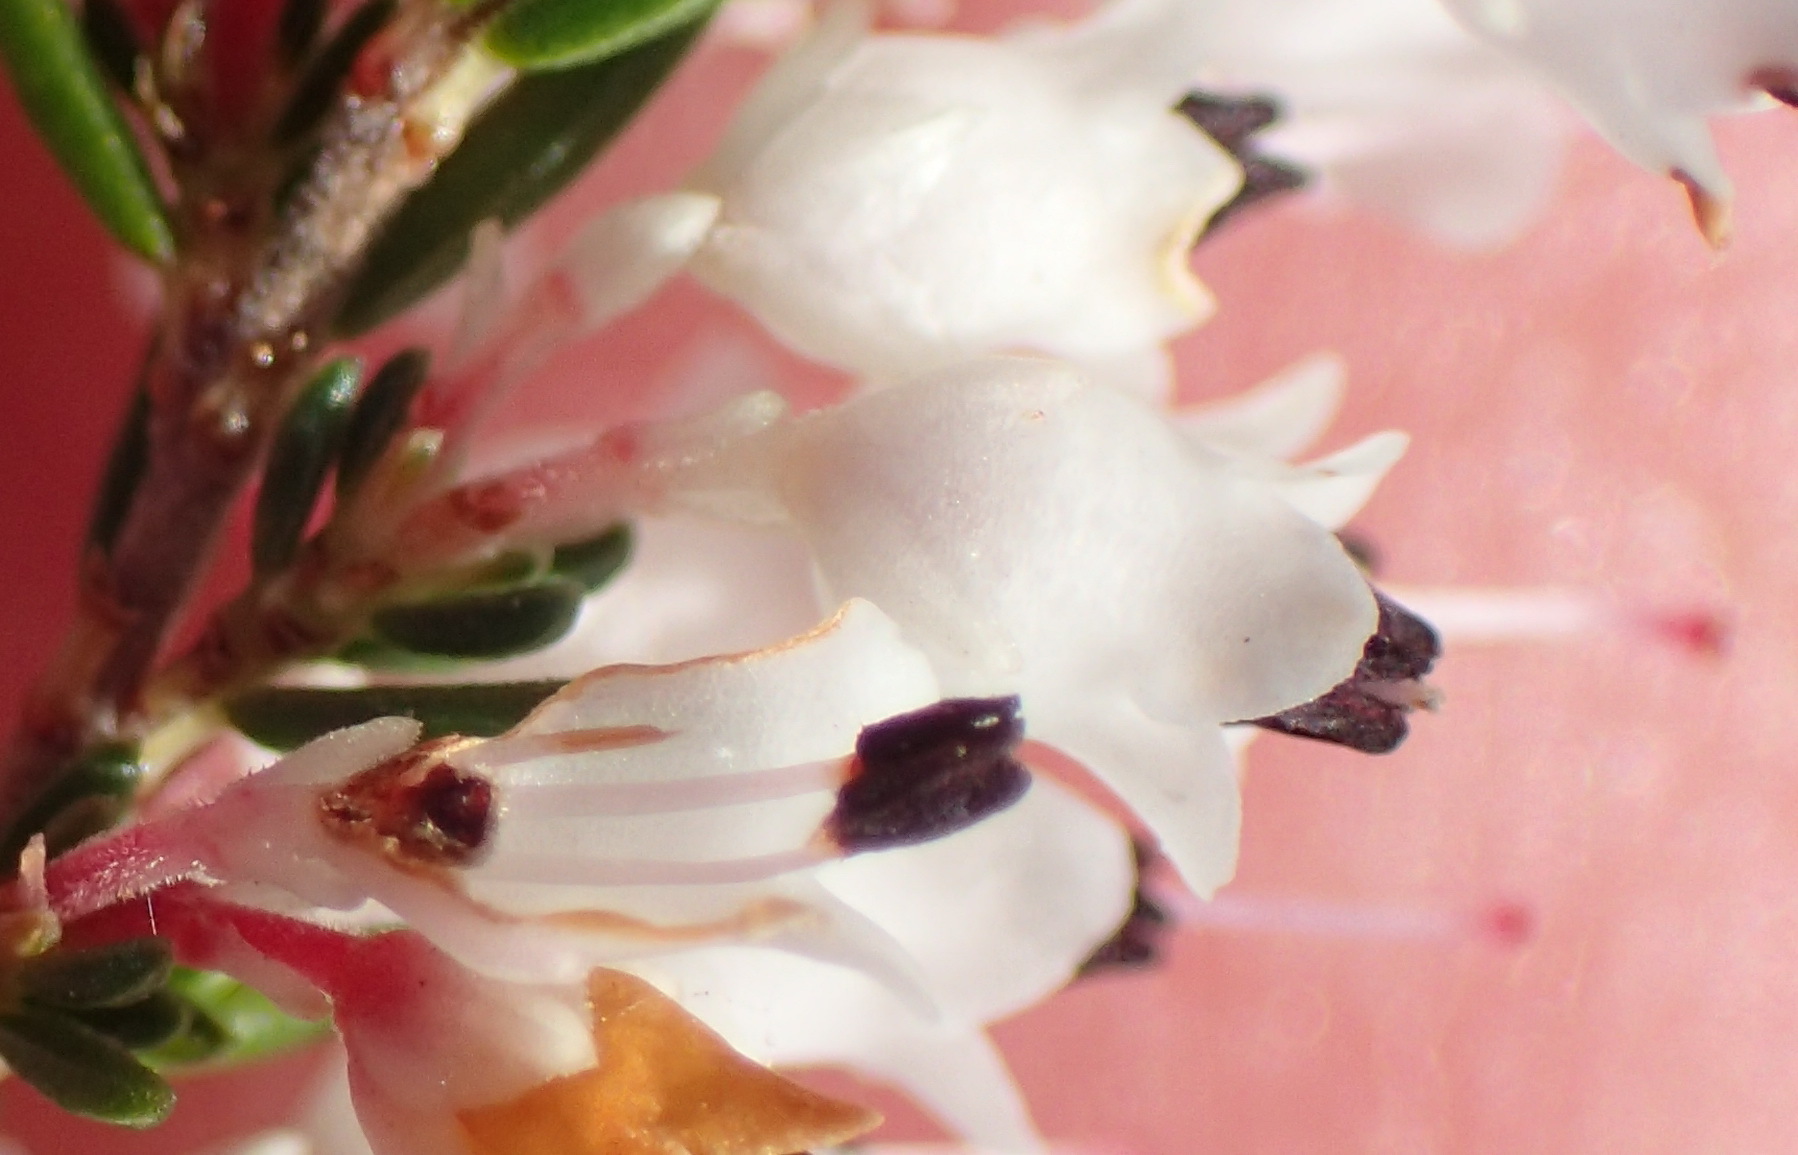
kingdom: Plantae
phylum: Tracheophyta
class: Magnoliopsida
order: Ericales
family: Ericaceae
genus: Erica
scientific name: Erica fuscescens
